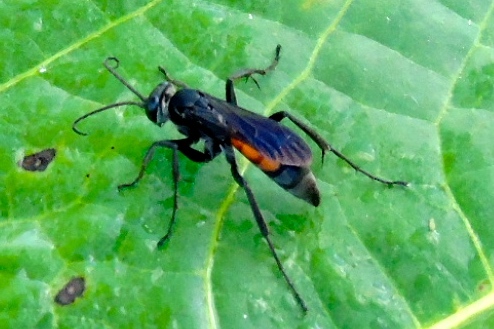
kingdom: Animalia
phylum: Arthropoda
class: Insecta
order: Hymenoptera
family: Pompilidae
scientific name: Pompilidae
